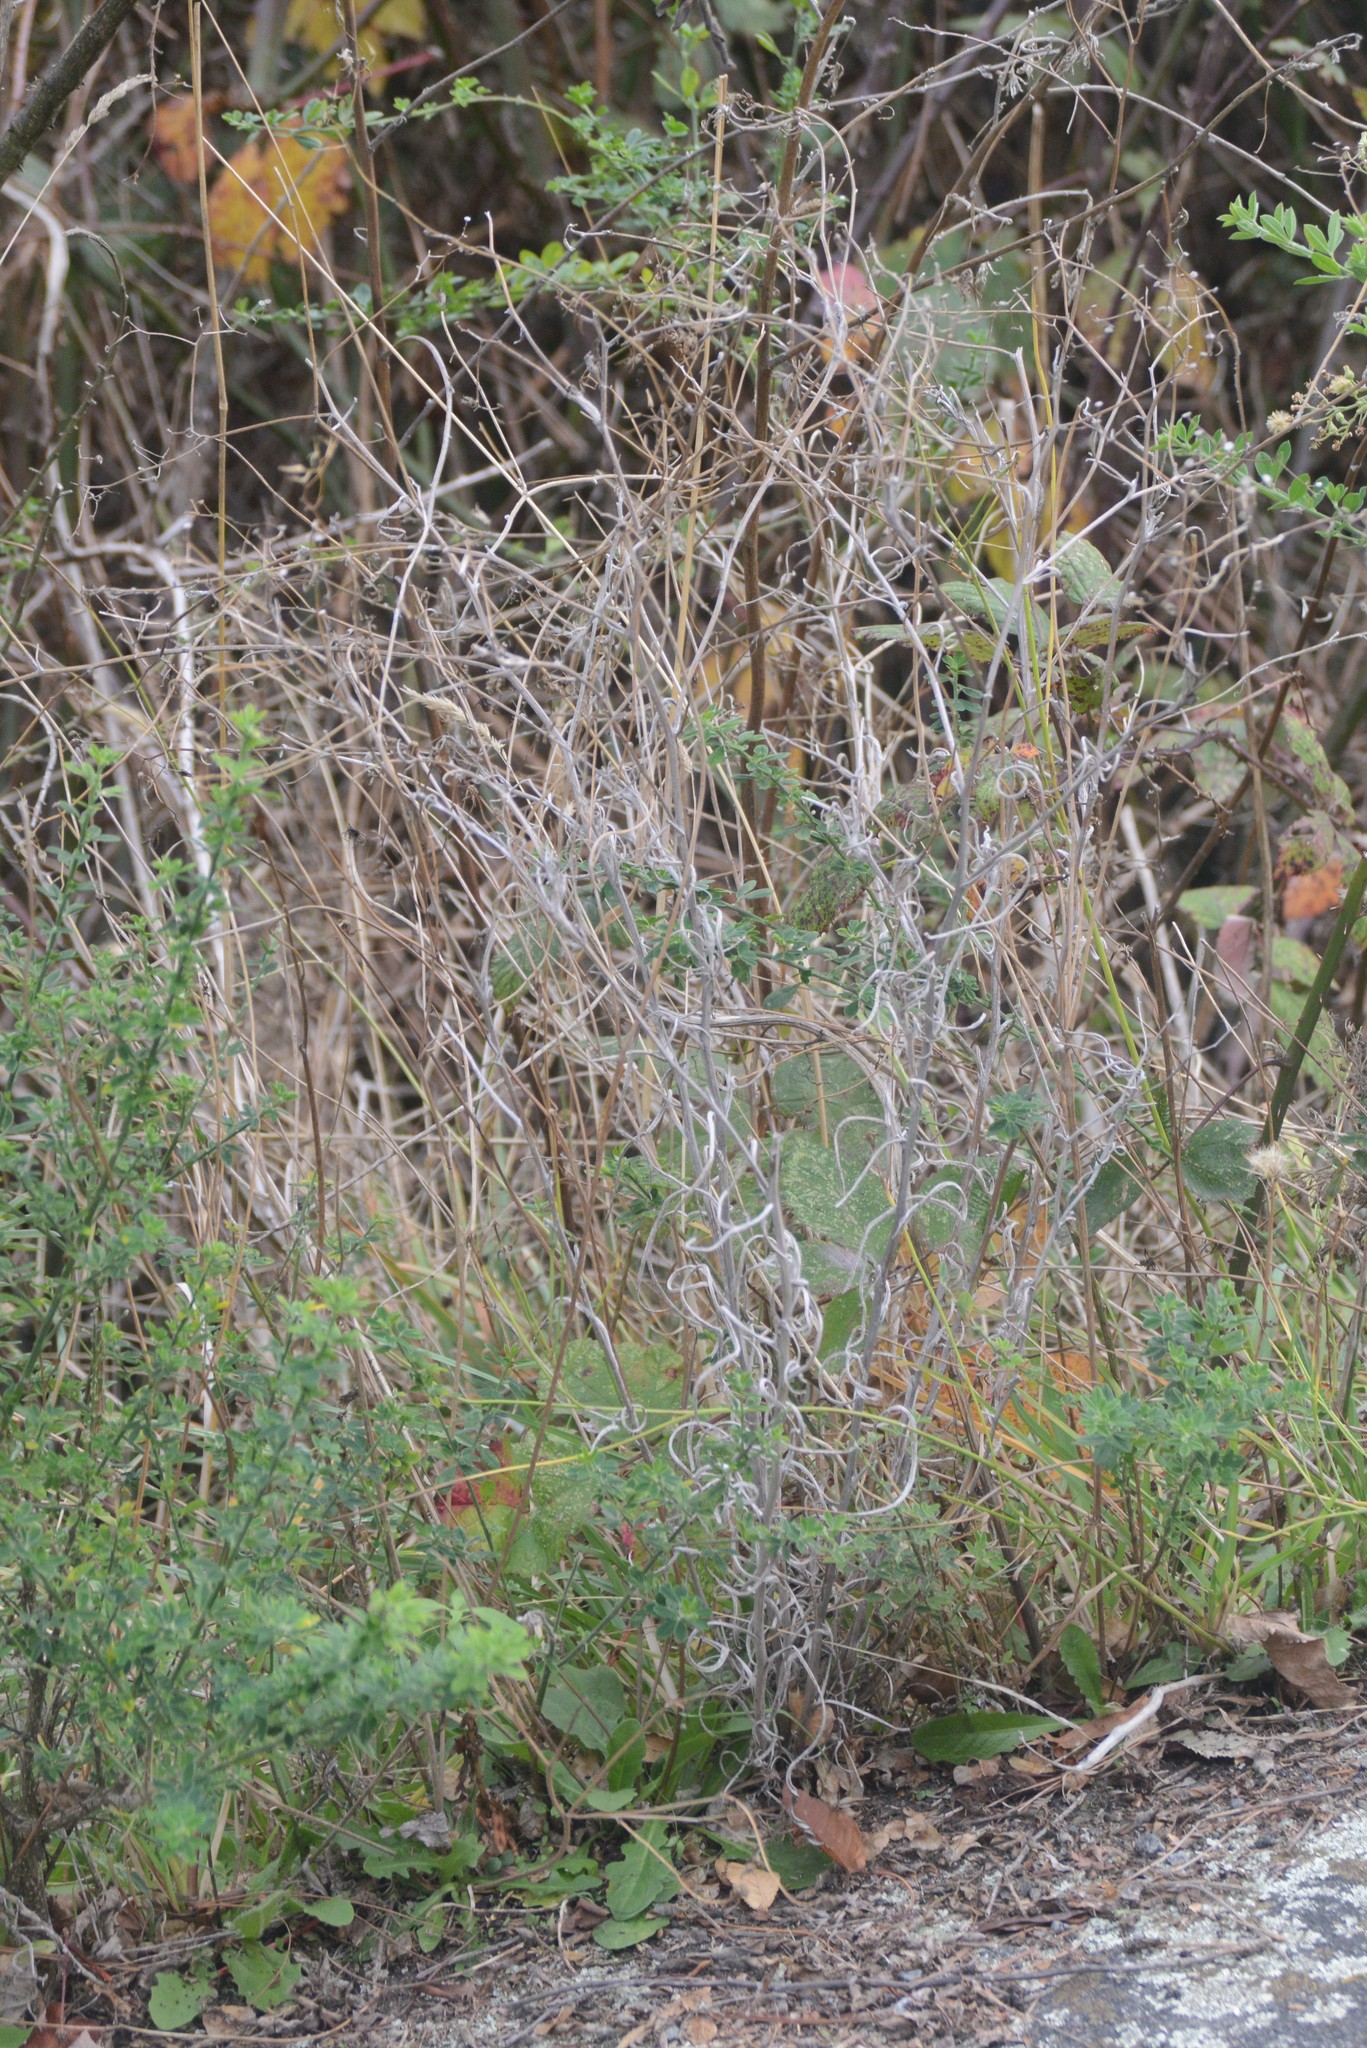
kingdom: Plantae
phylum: Tracheophyta
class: Magnoliopsida
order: Asterales
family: Asteraceae
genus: Senecio
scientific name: Senecio quadridentatus
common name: Cotton fireweed
